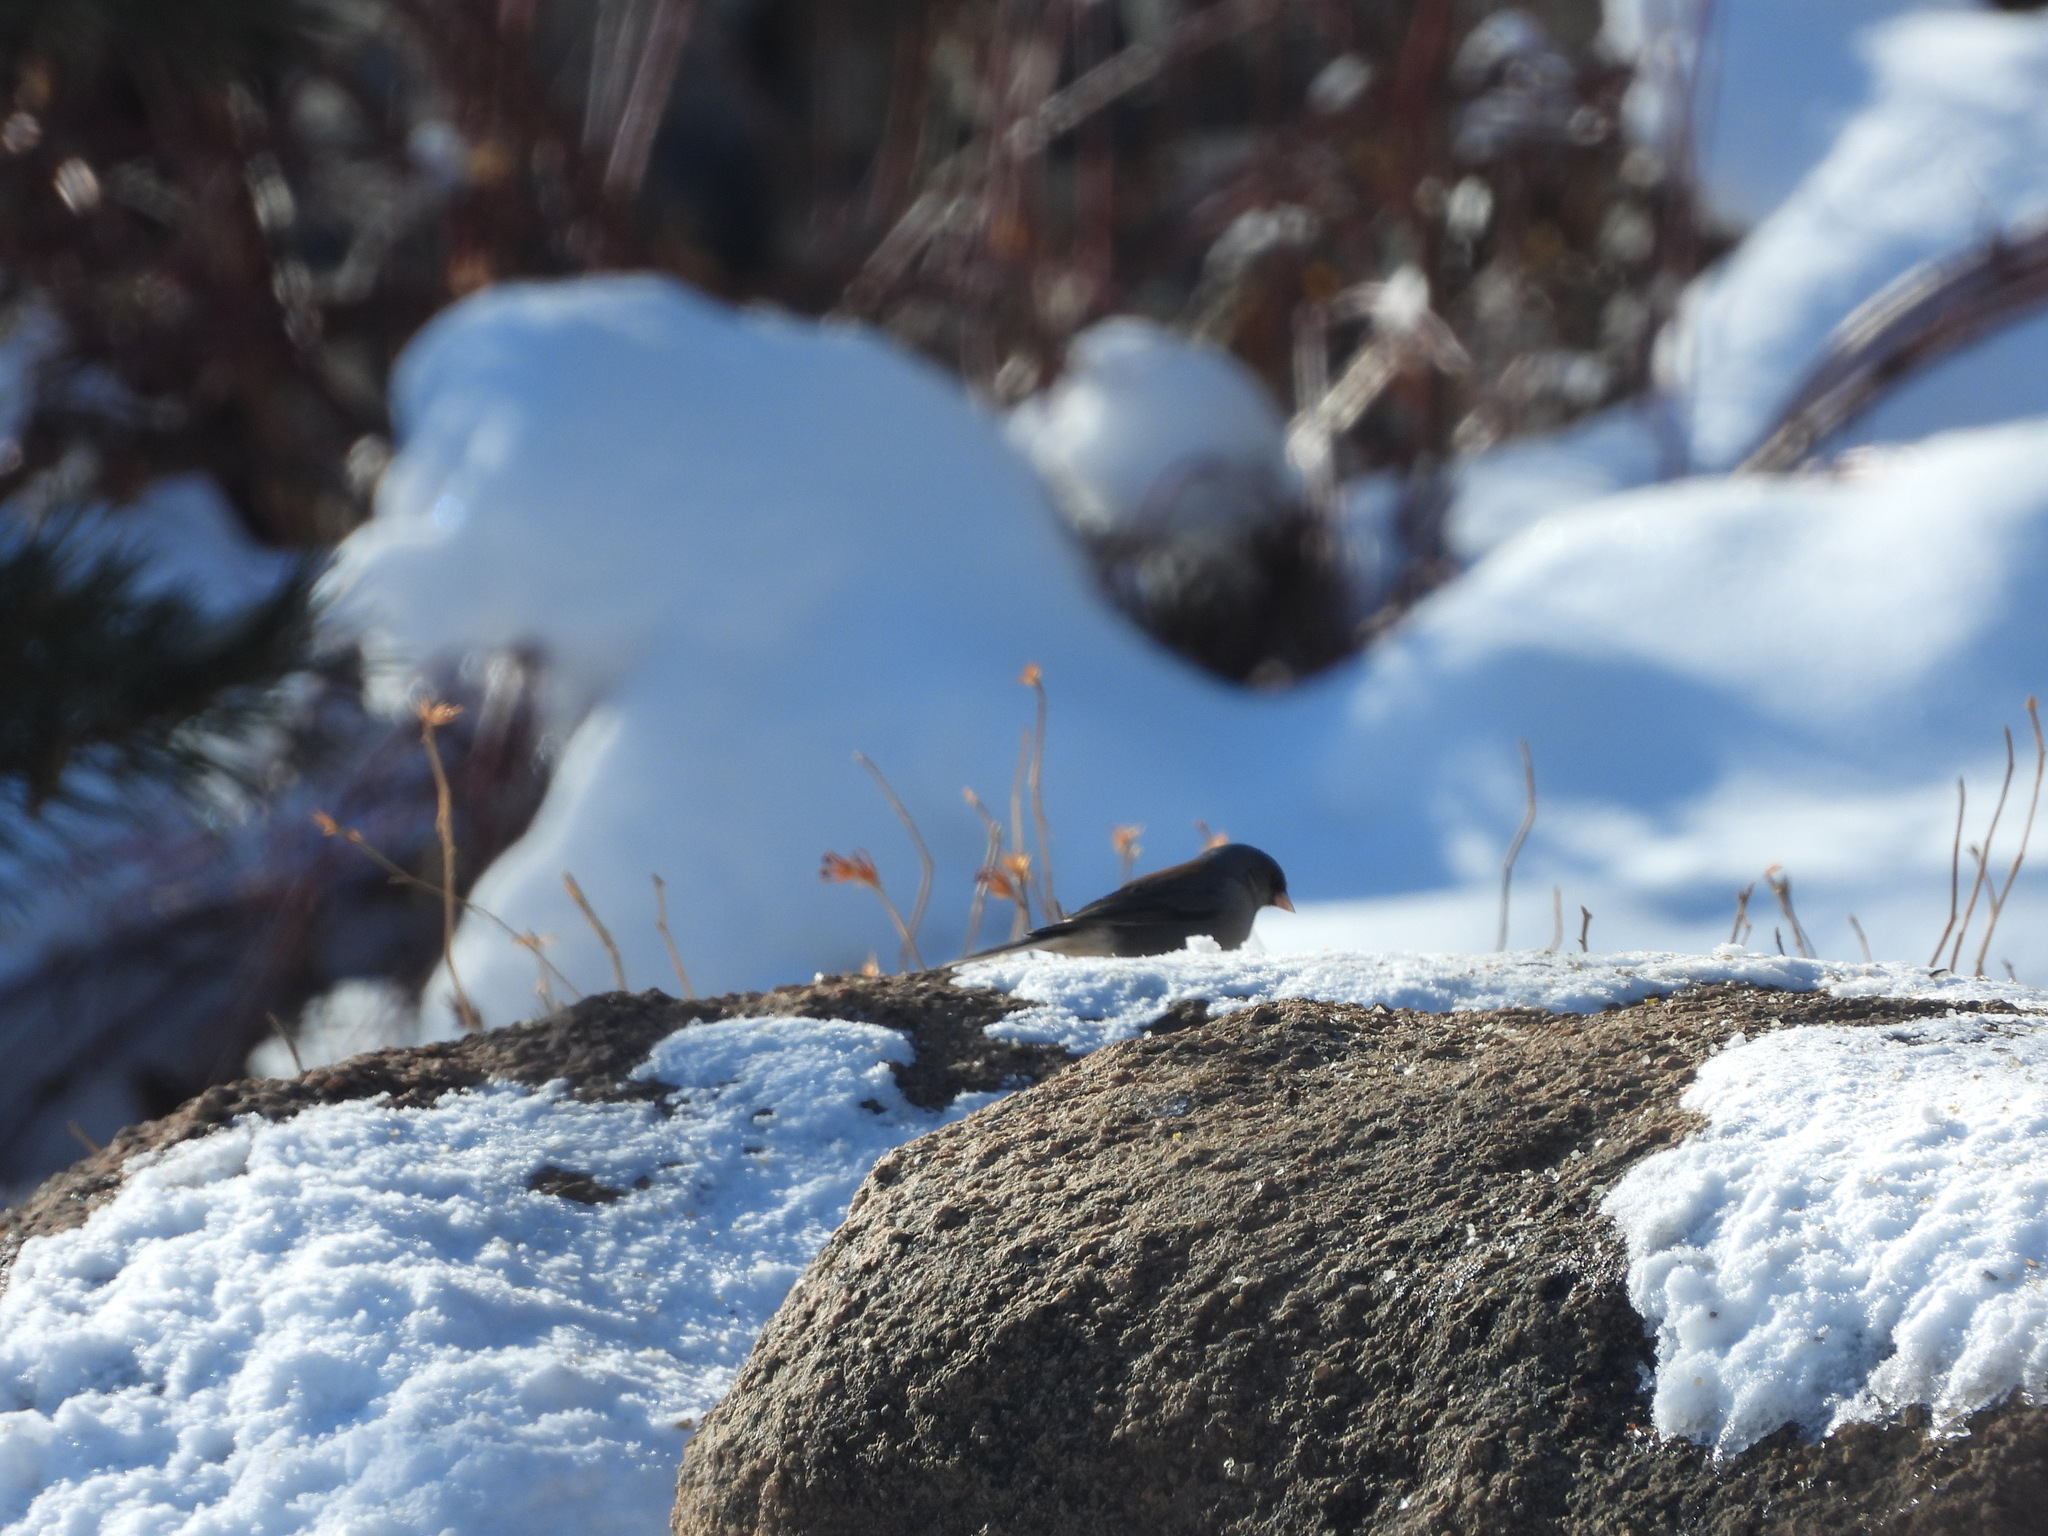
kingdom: Animalia
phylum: Chordata
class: Aves
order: Passeriformes
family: Passerellidae
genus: Junco
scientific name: Junco hyemalis
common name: Dark-eyed junco
